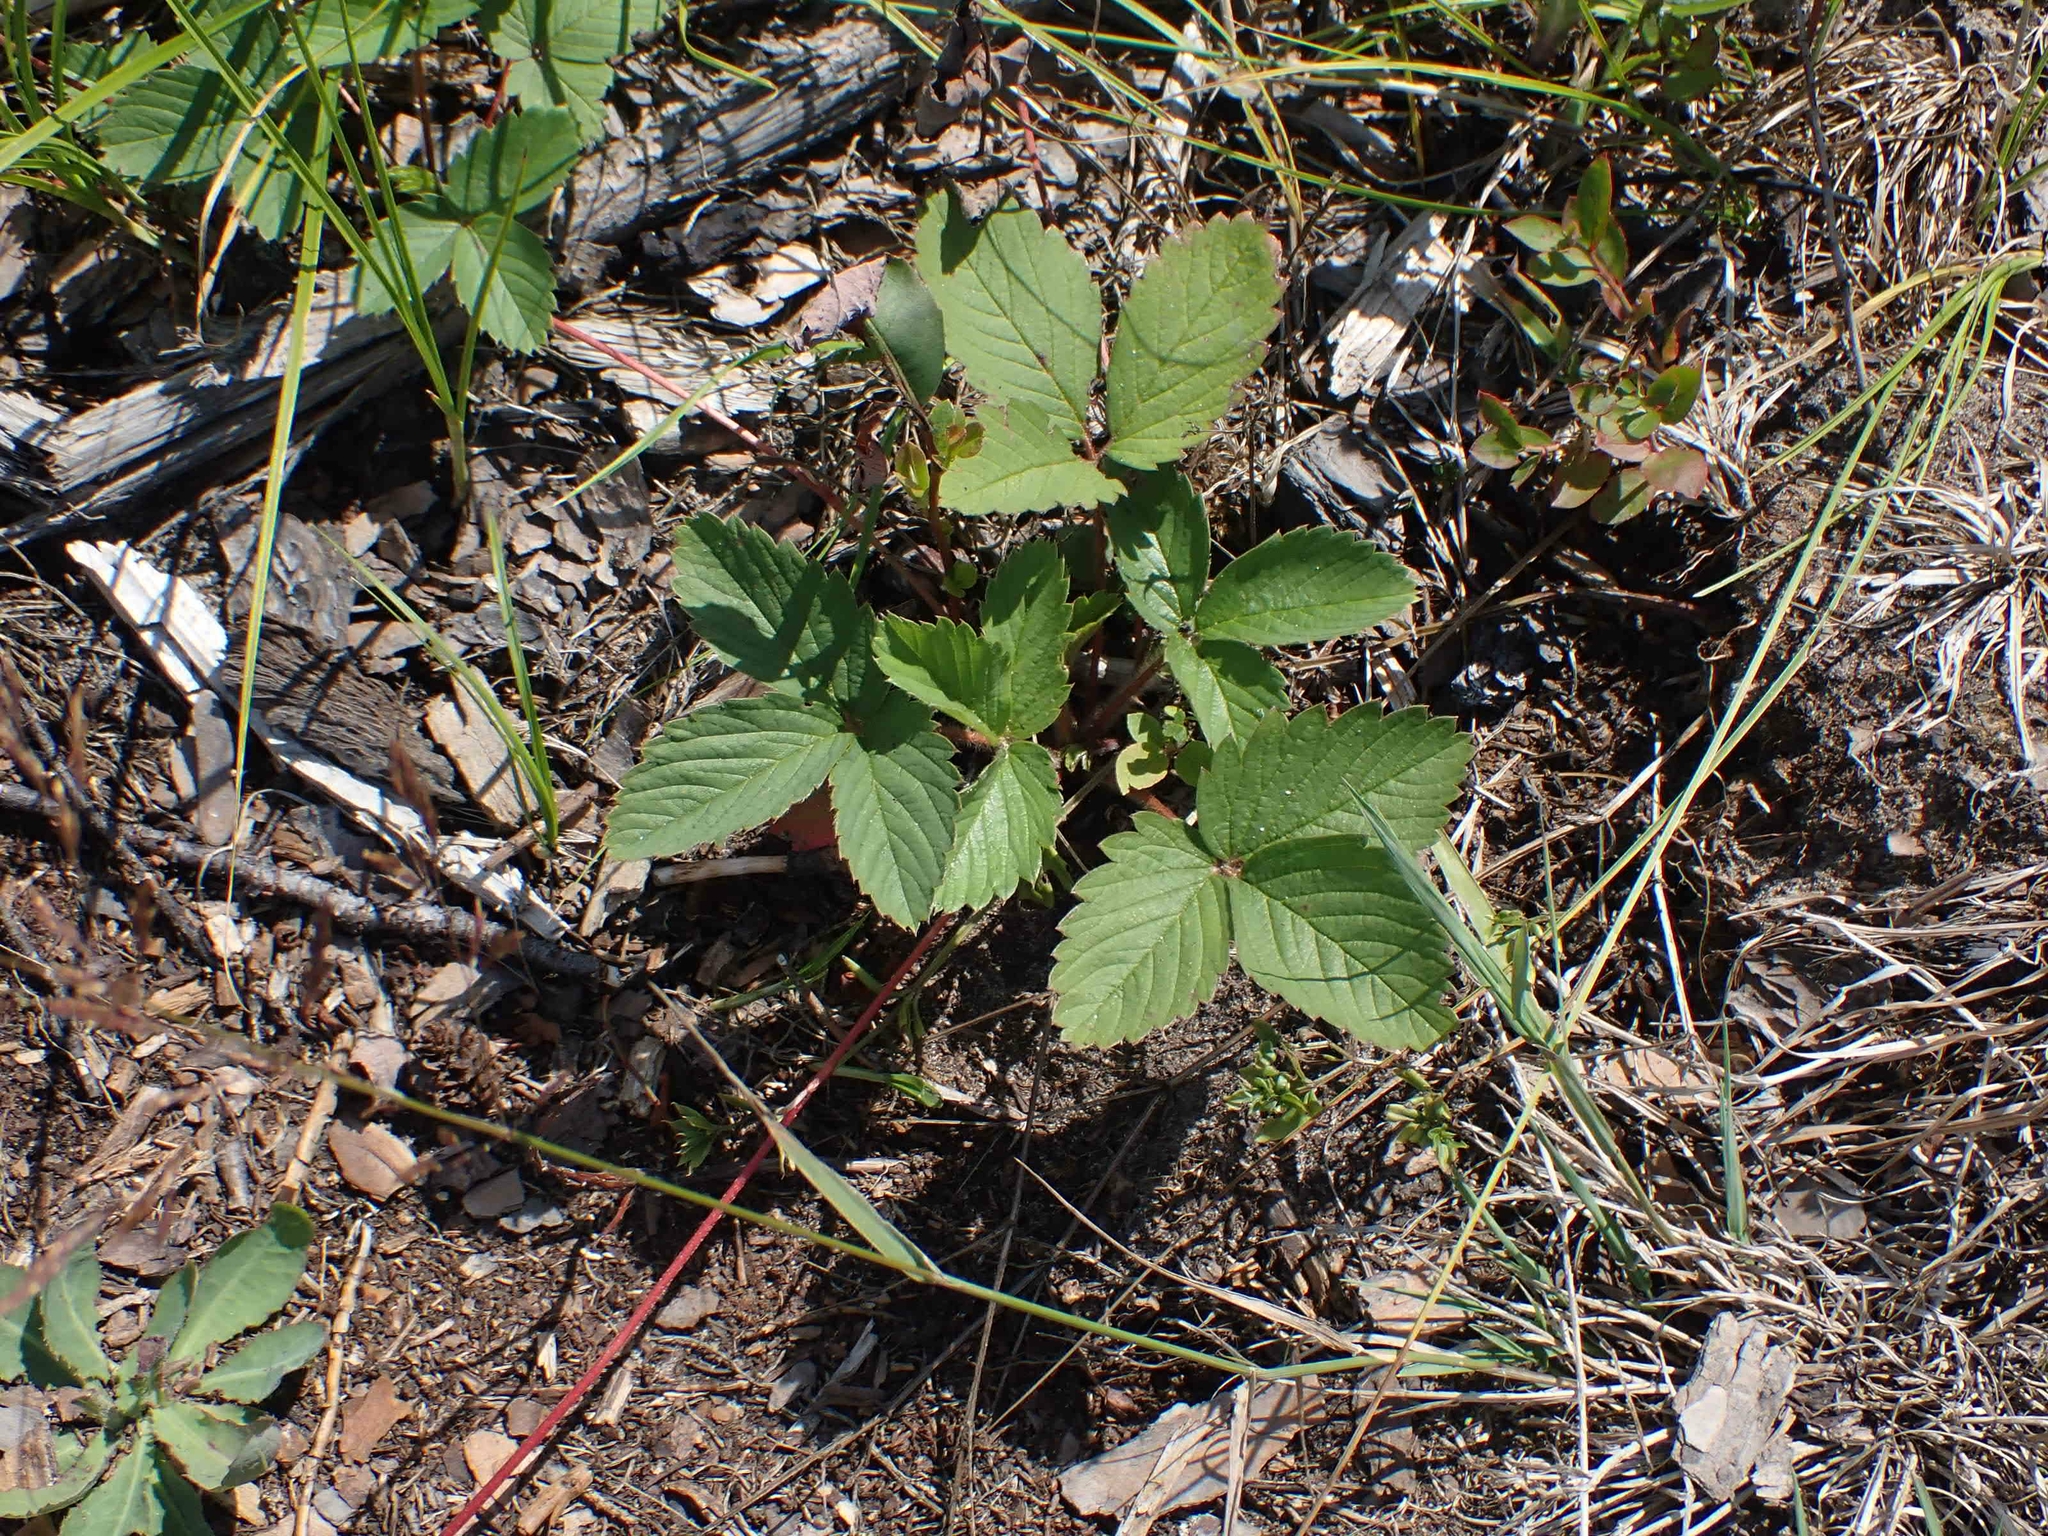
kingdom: Plantae
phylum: Tracheophyta
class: Magnoliopsida
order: Rosales
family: Rosaceae
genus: Fragaria
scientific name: Fragaria virginiana
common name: Thickleaved wild strawberry
